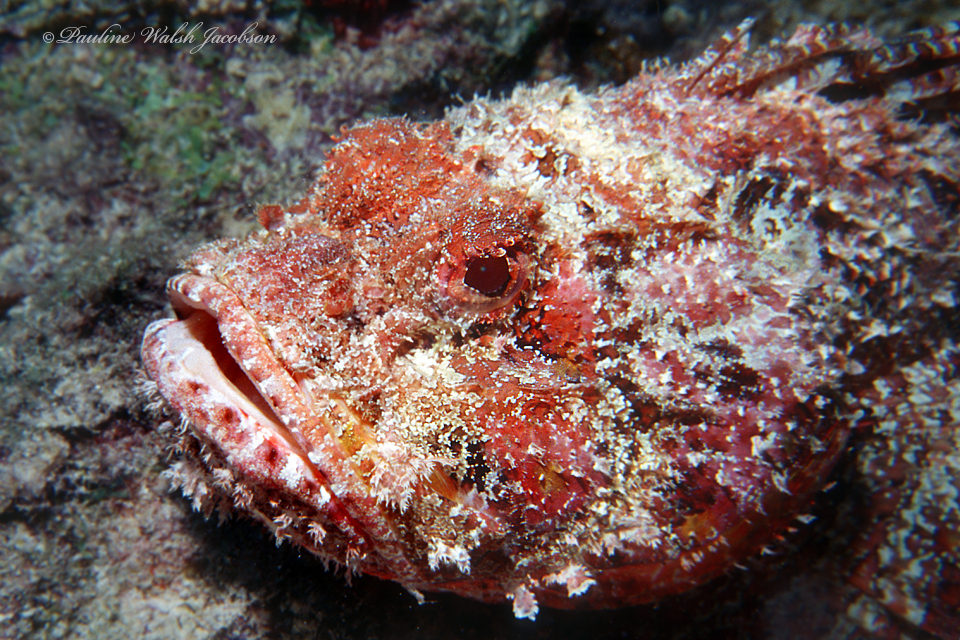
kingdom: Animalia
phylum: Chordata
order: Scorpaeniformes
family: Scorpaenidae
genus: Scorpaena
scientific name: Scorpaena plumieri
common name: Spotted scorpionfish
